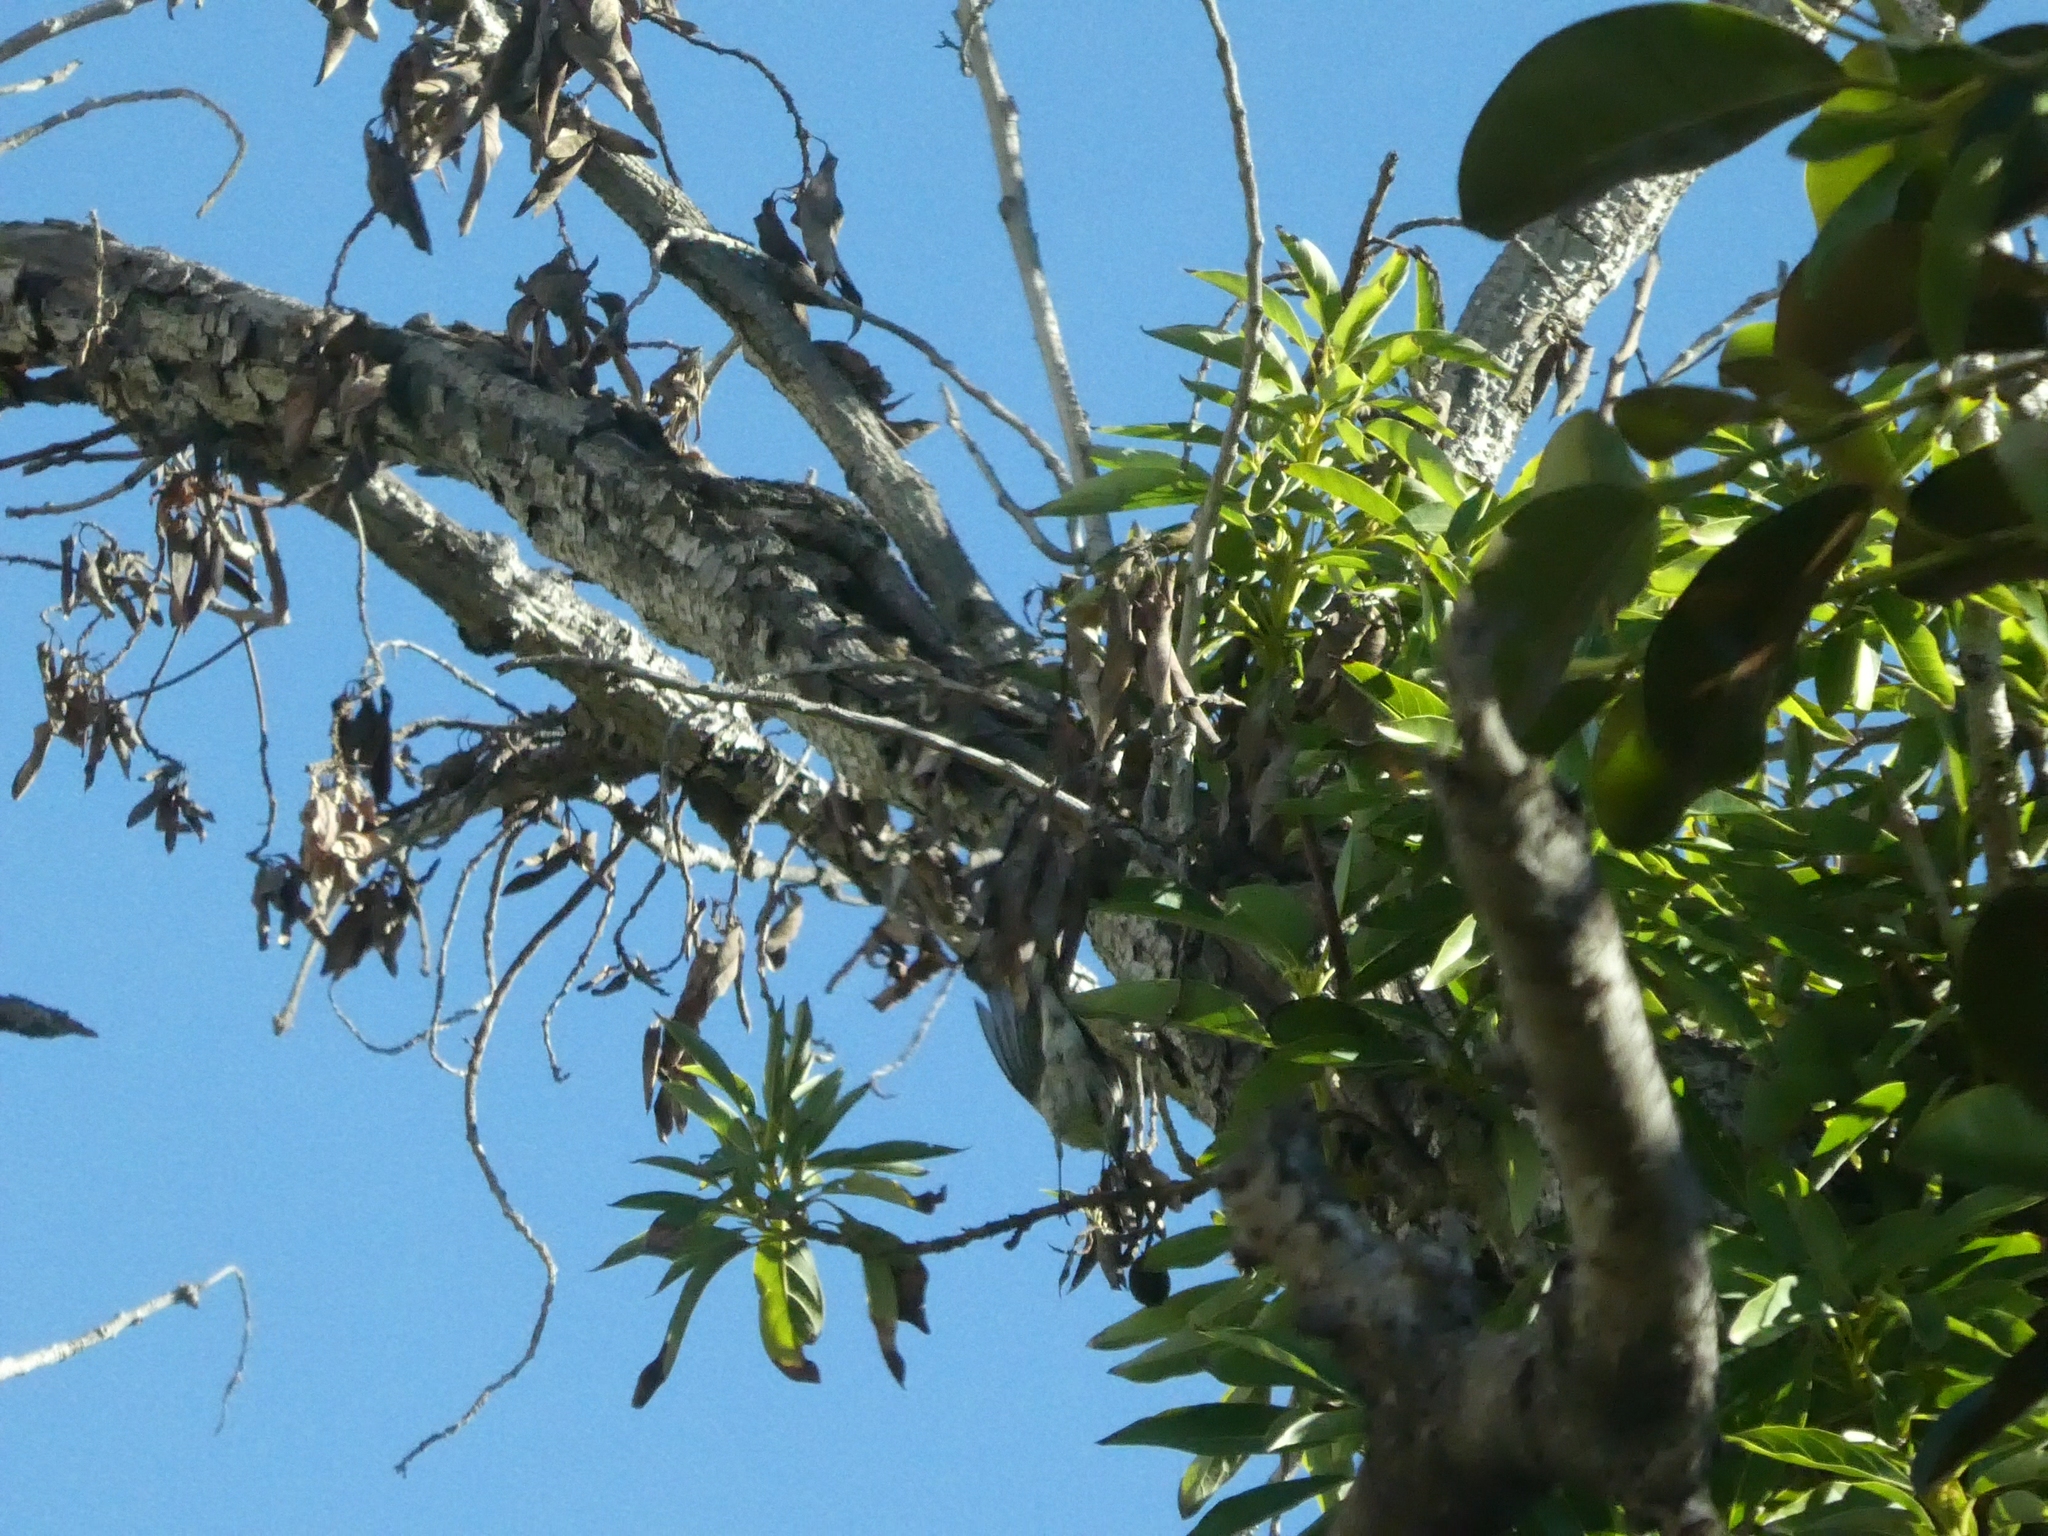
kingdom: Animalia
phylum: Chordata
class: Aves
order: Passeriformes
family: Parulidae
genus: Setophaga
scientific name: Setophaga coronata
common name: Myrtle warbler
